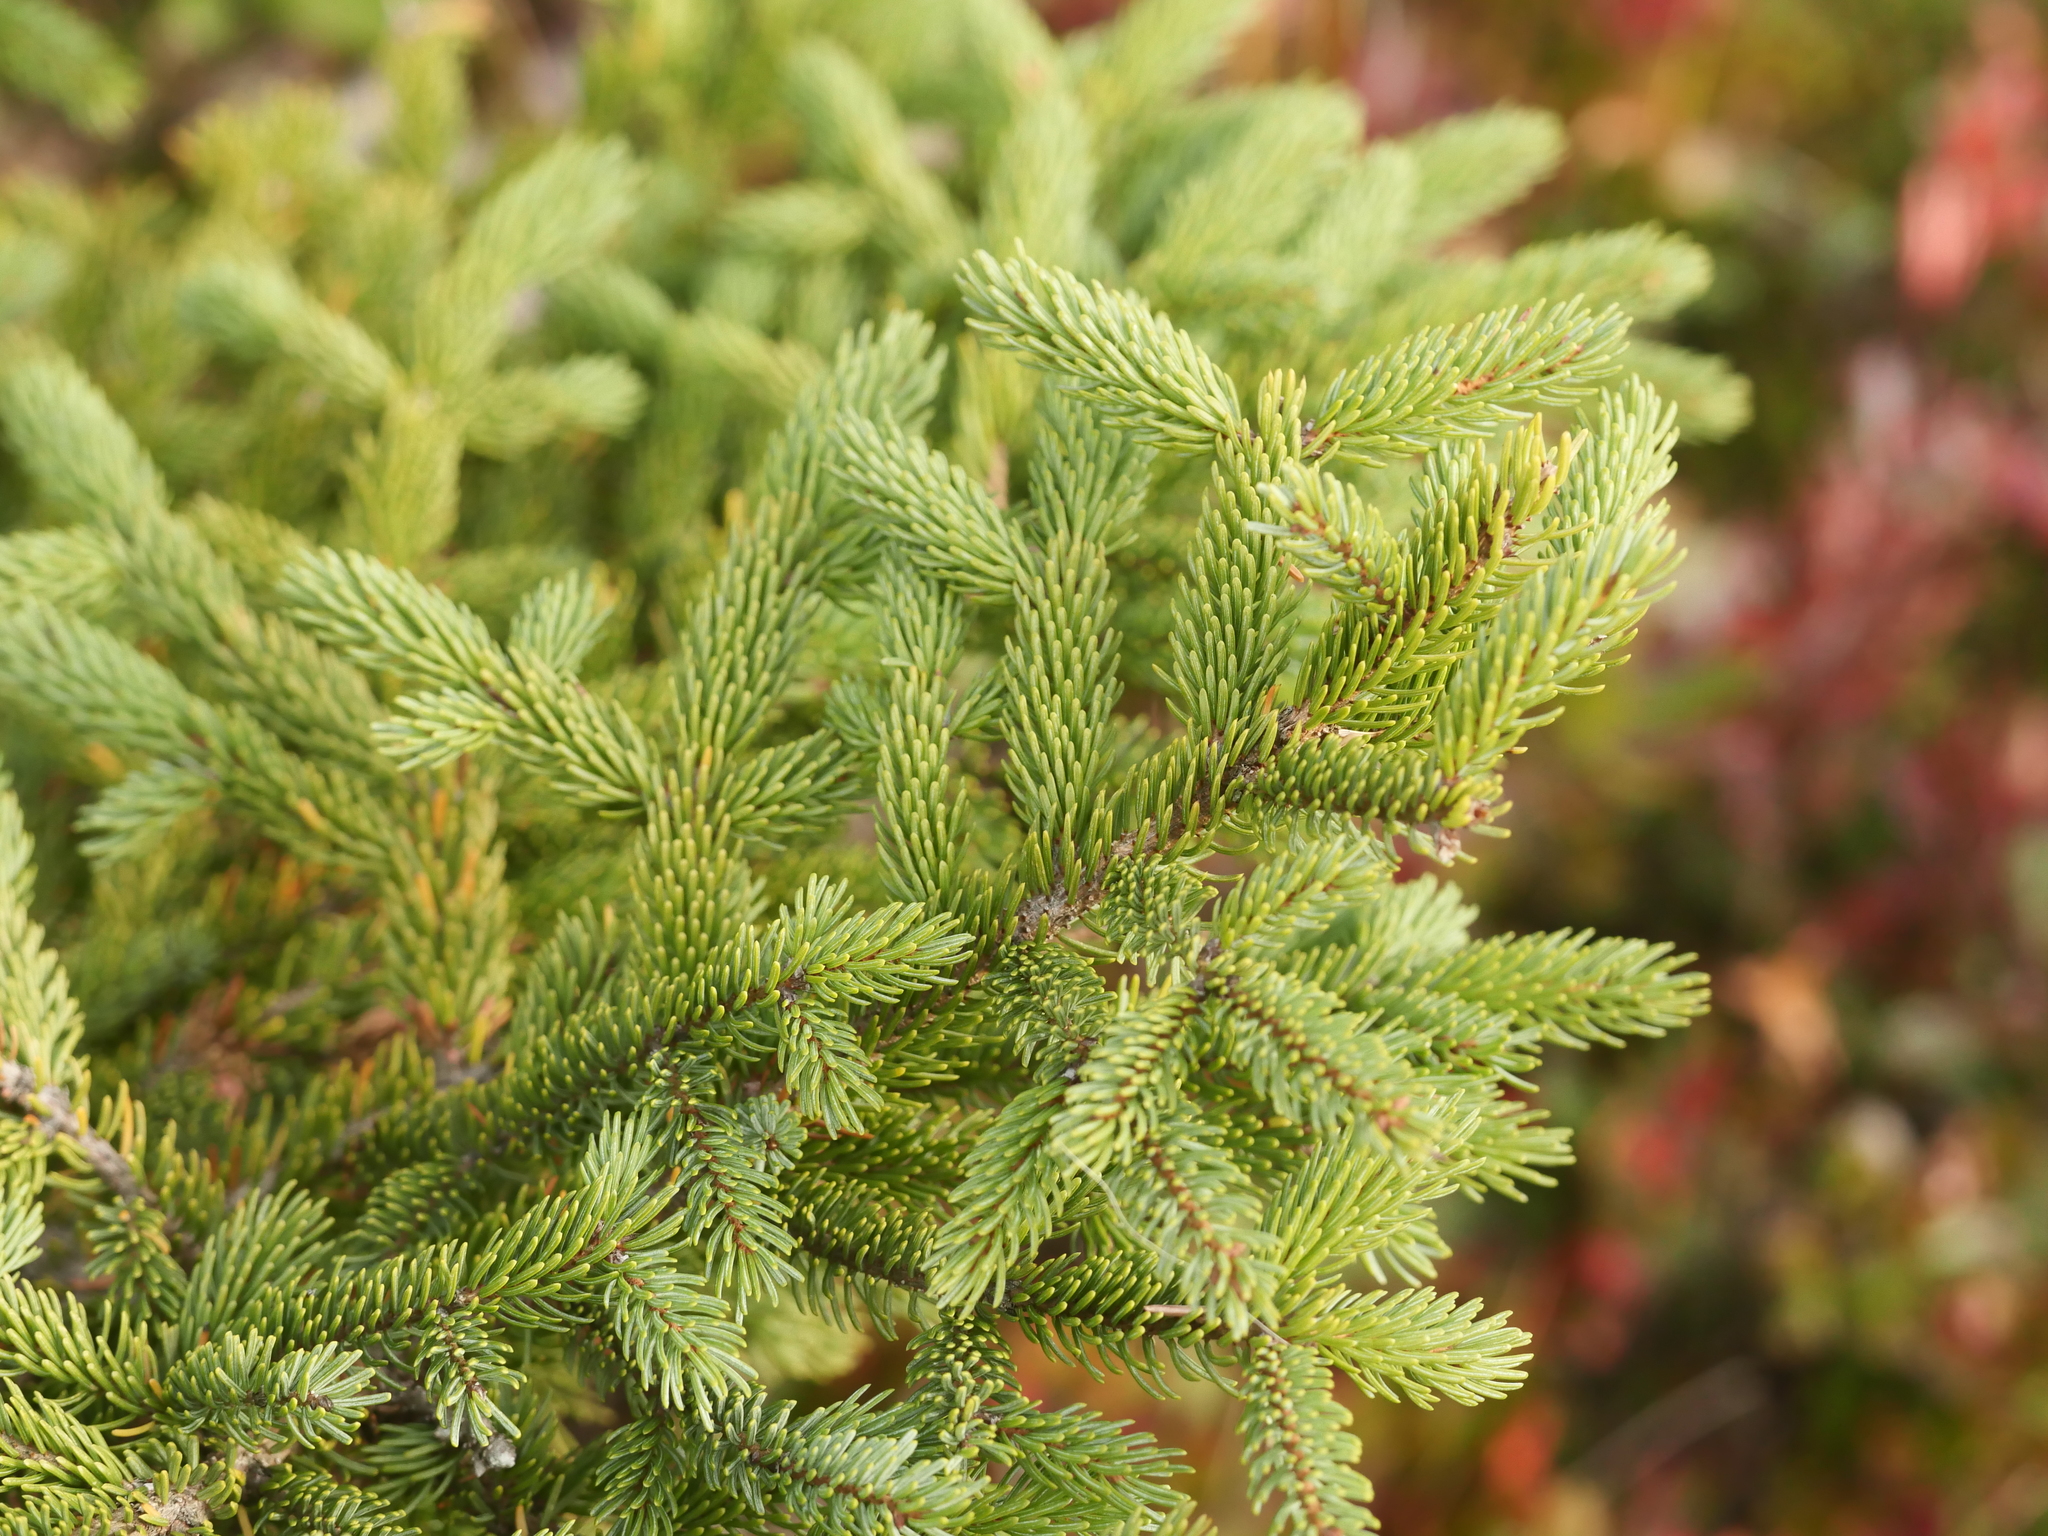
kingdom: Plantae
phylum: Tracheophyta
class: Pinopsida
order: Pinales
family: Pinaceae
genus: Picea
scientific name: Picea mariana
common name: Black spruce
